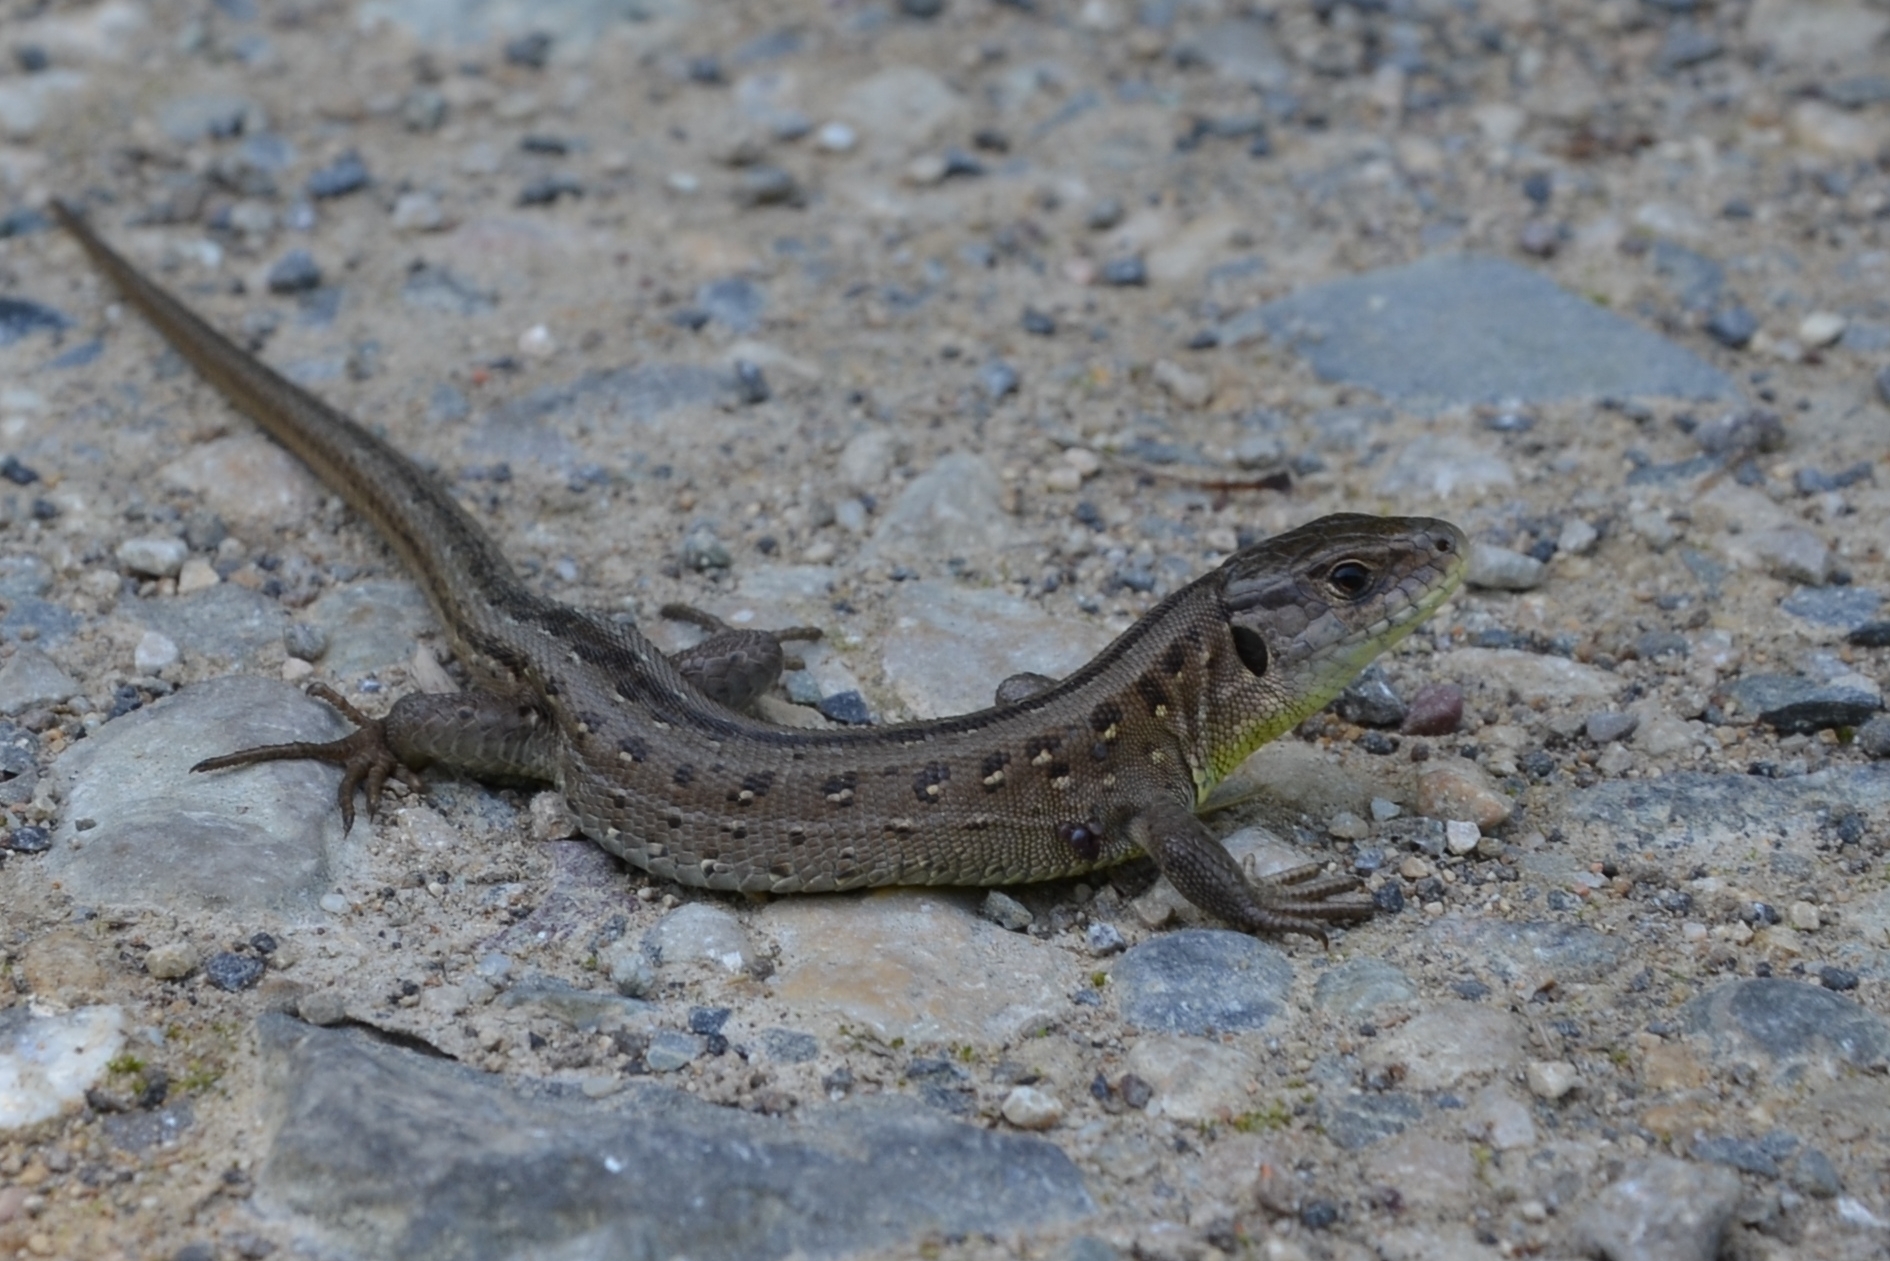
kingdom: Animalia
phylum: Chordata
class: Squamata
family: Lacertidae
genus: Lacerta
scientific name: Lacerta agilis
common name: Sand lizard
